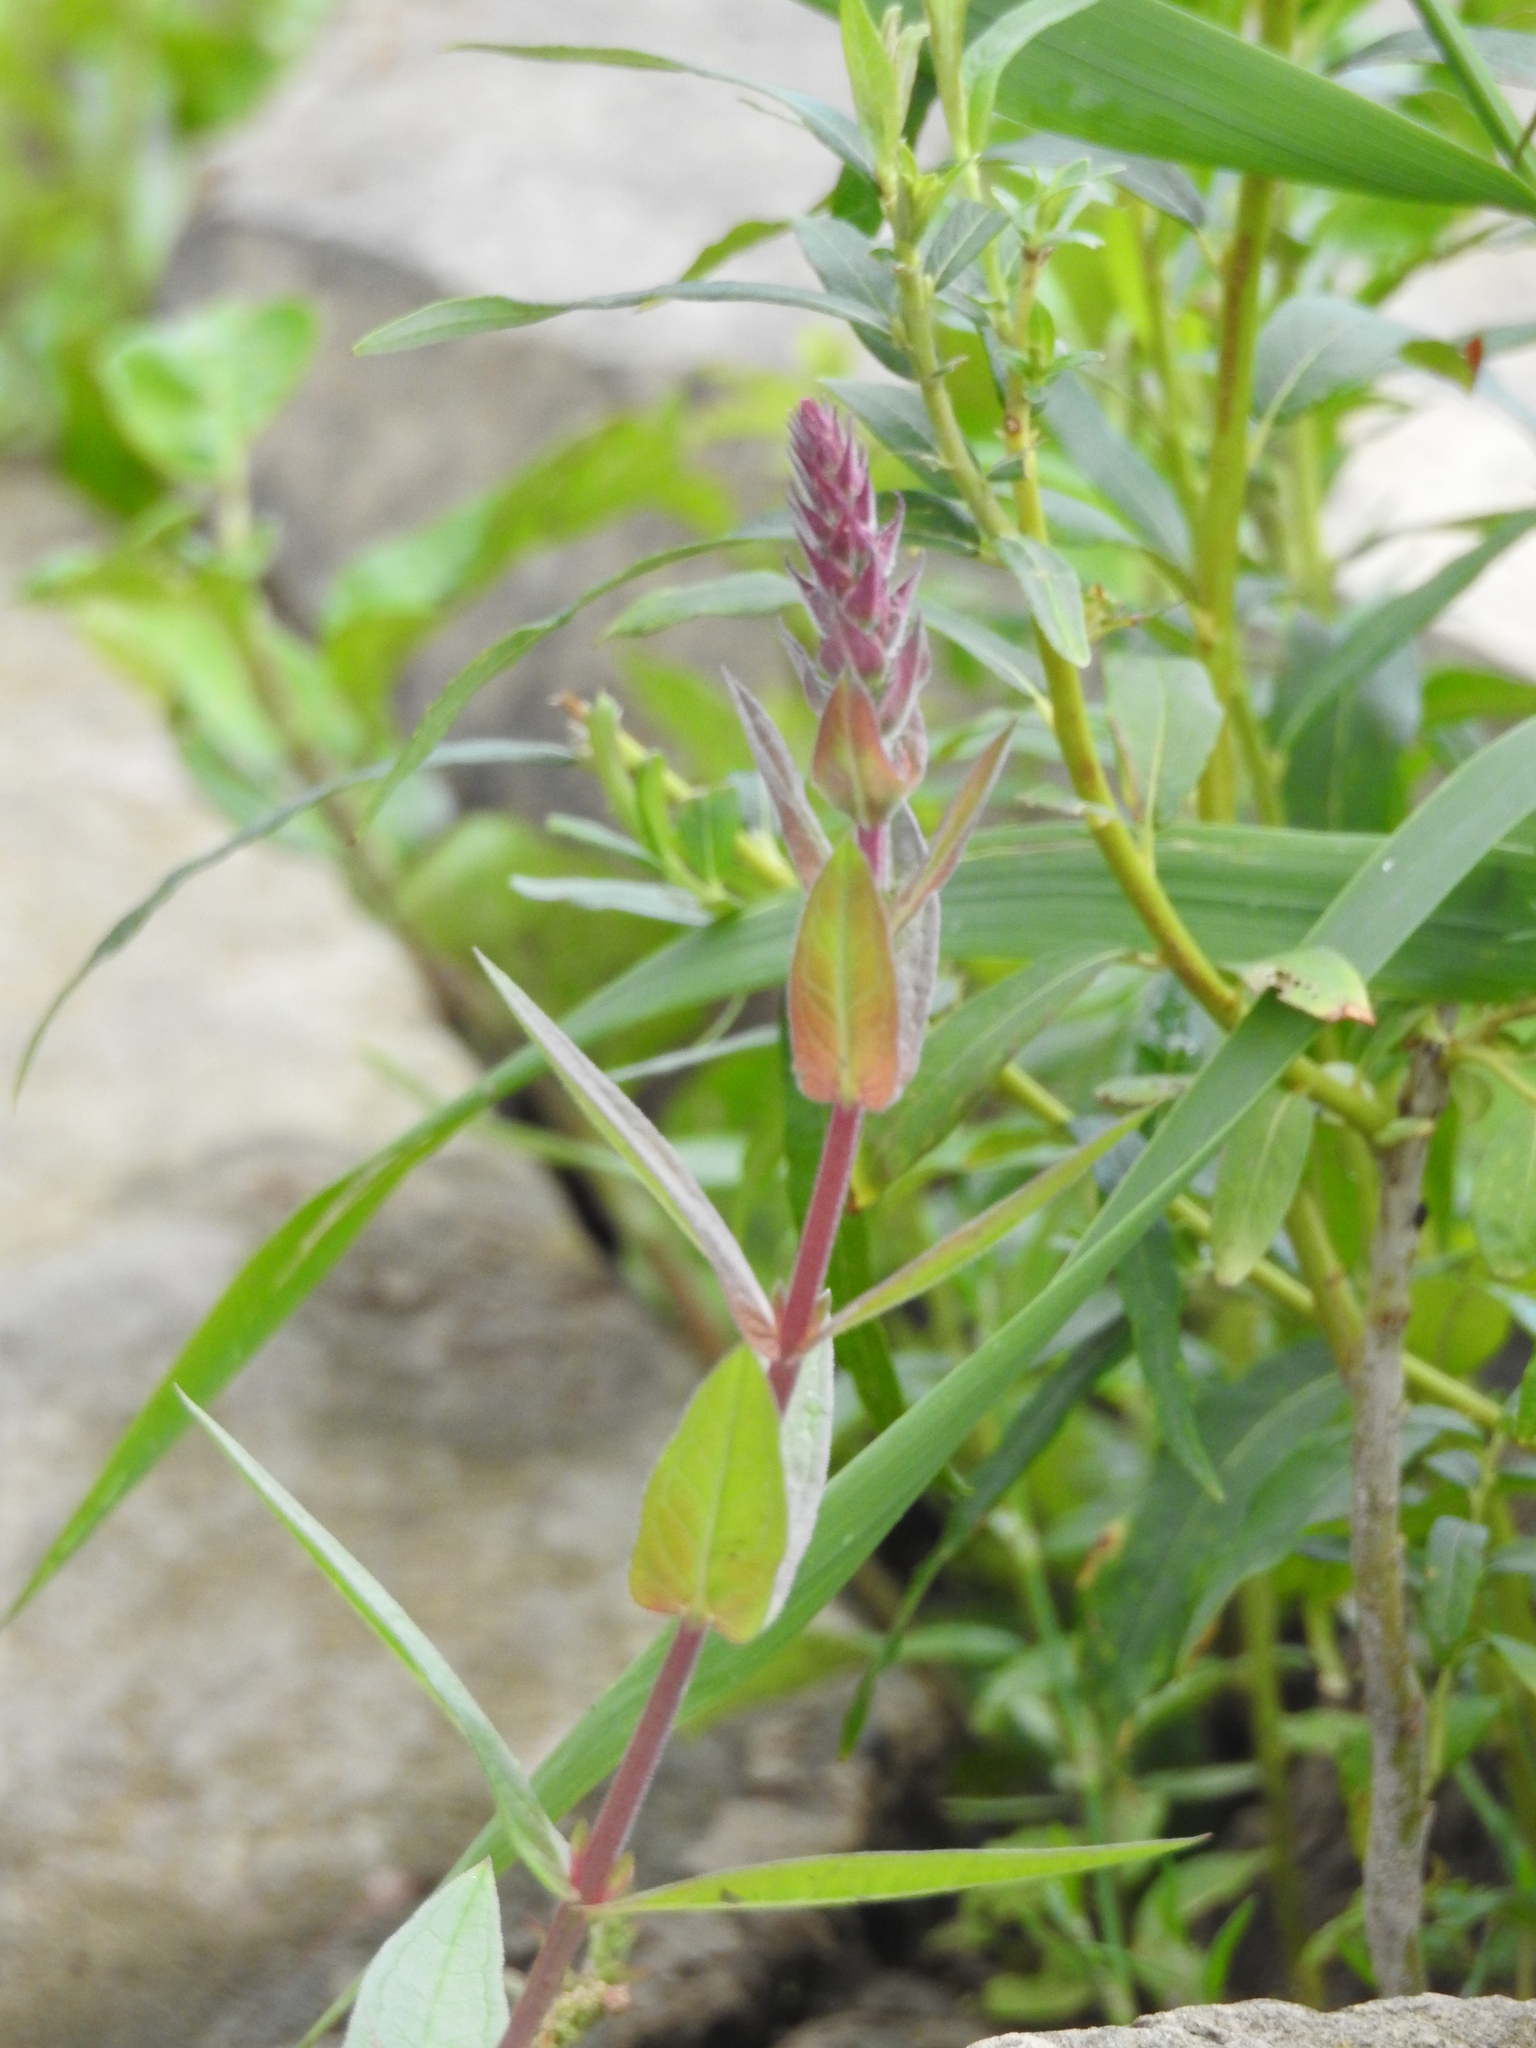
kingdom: Plantae
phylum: Tracheophyta
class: Magnoliopsida
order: Myrtales
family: Lythraceae
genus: Lythrum
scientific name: Lythrum salicaria
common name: Purple loosestrife
